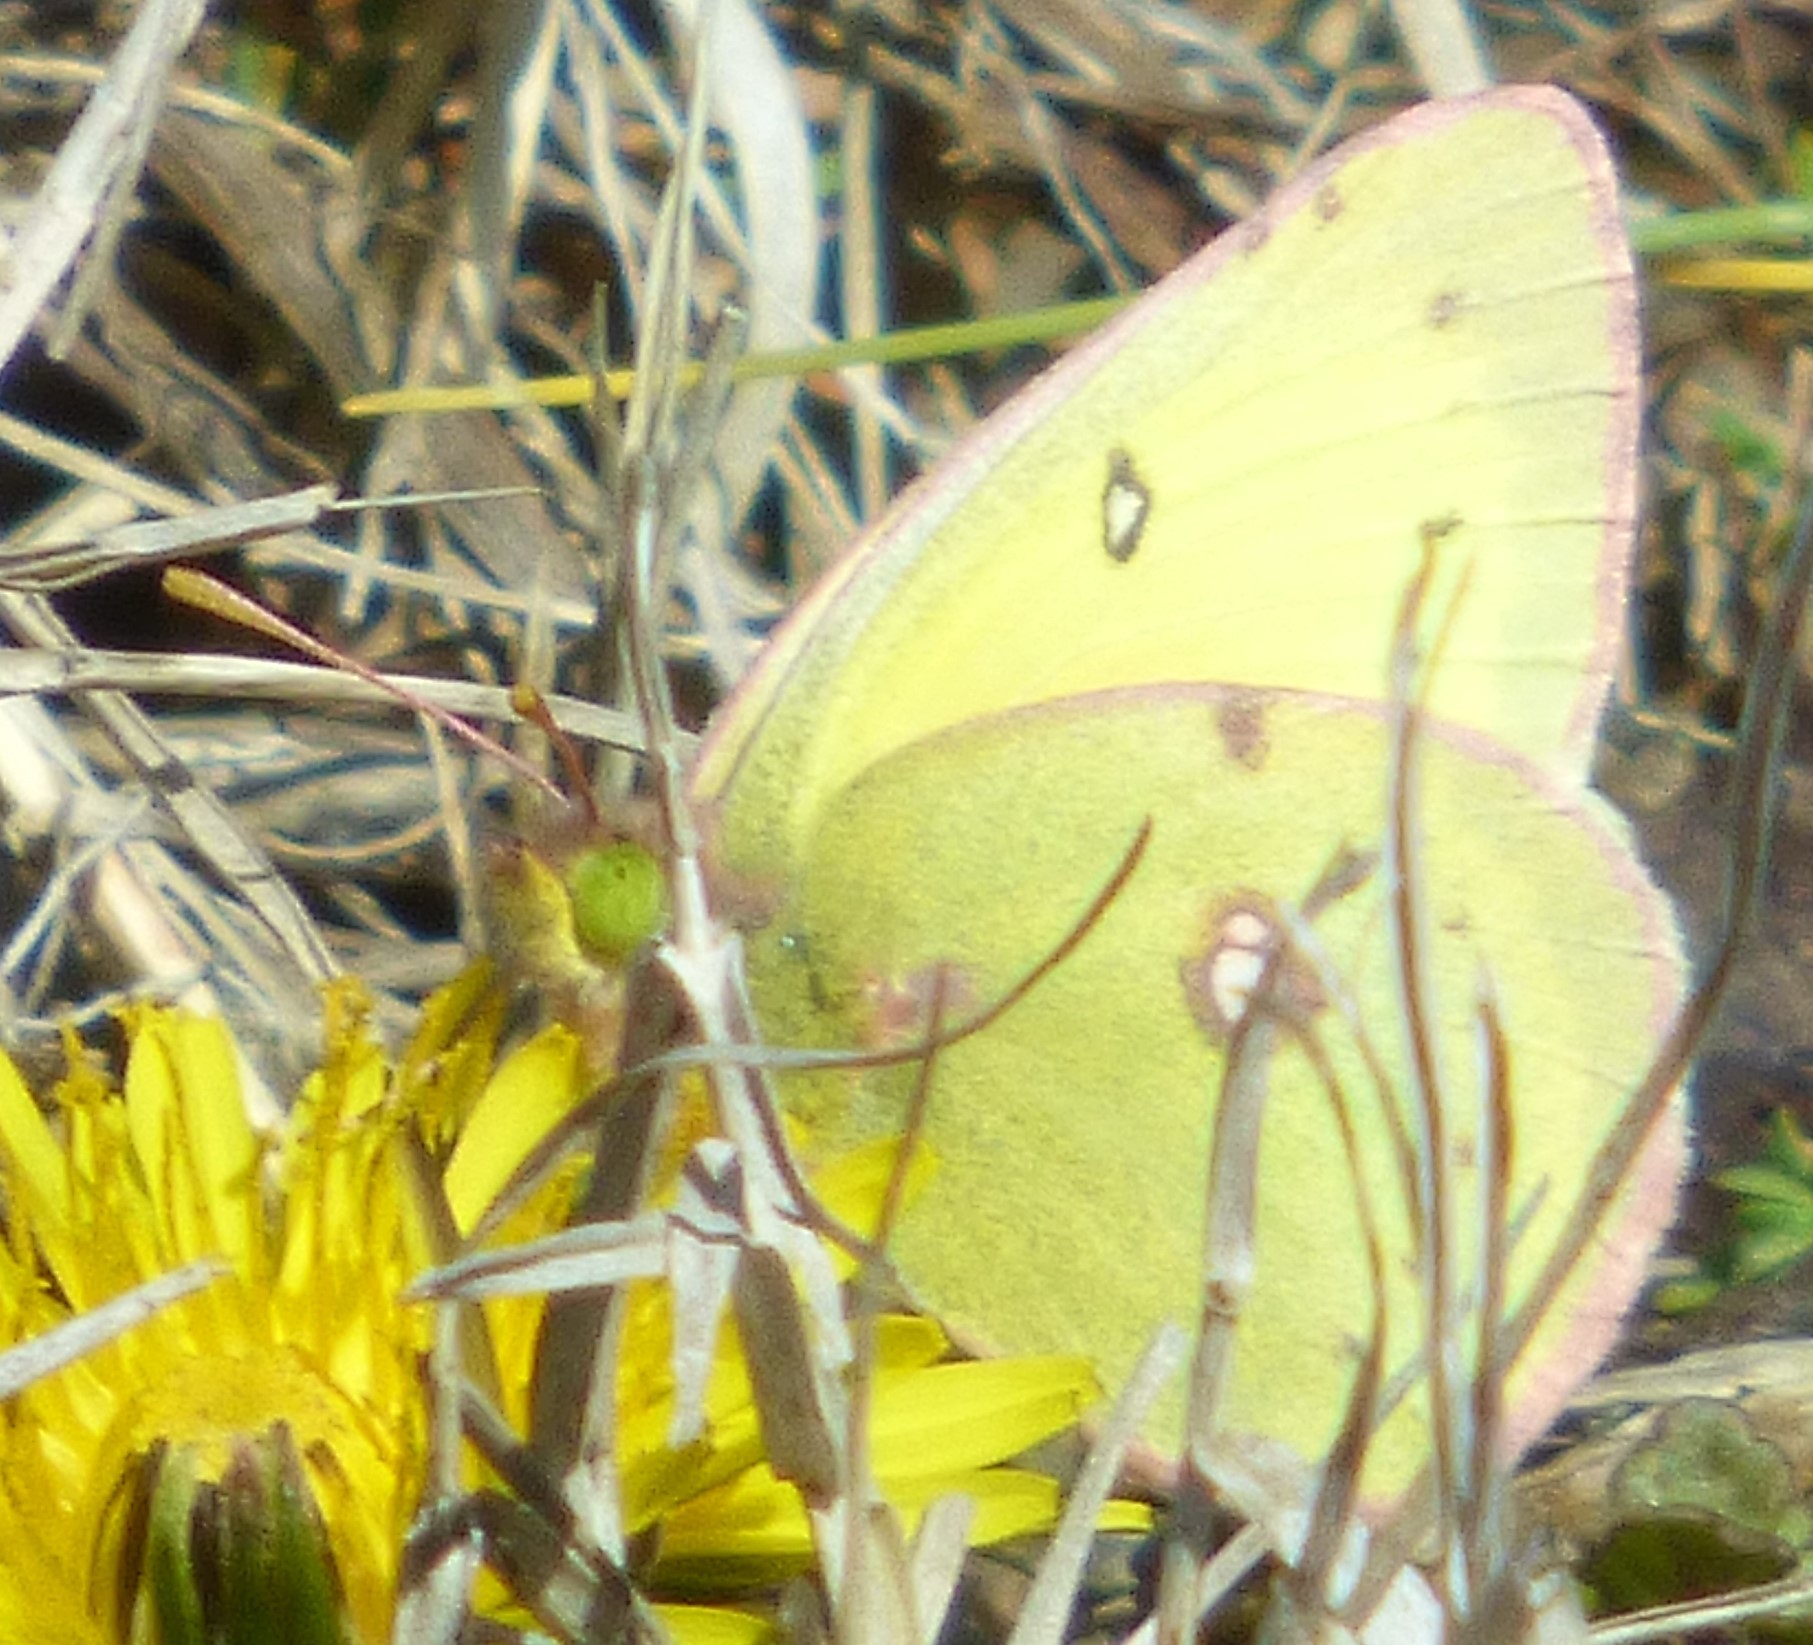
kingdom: Animalia
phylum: Arthropoda
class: Insecta
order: Lepidoptera
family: Pieridae
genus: Colias
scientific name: Colias philodice
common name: Clouded sulphur
